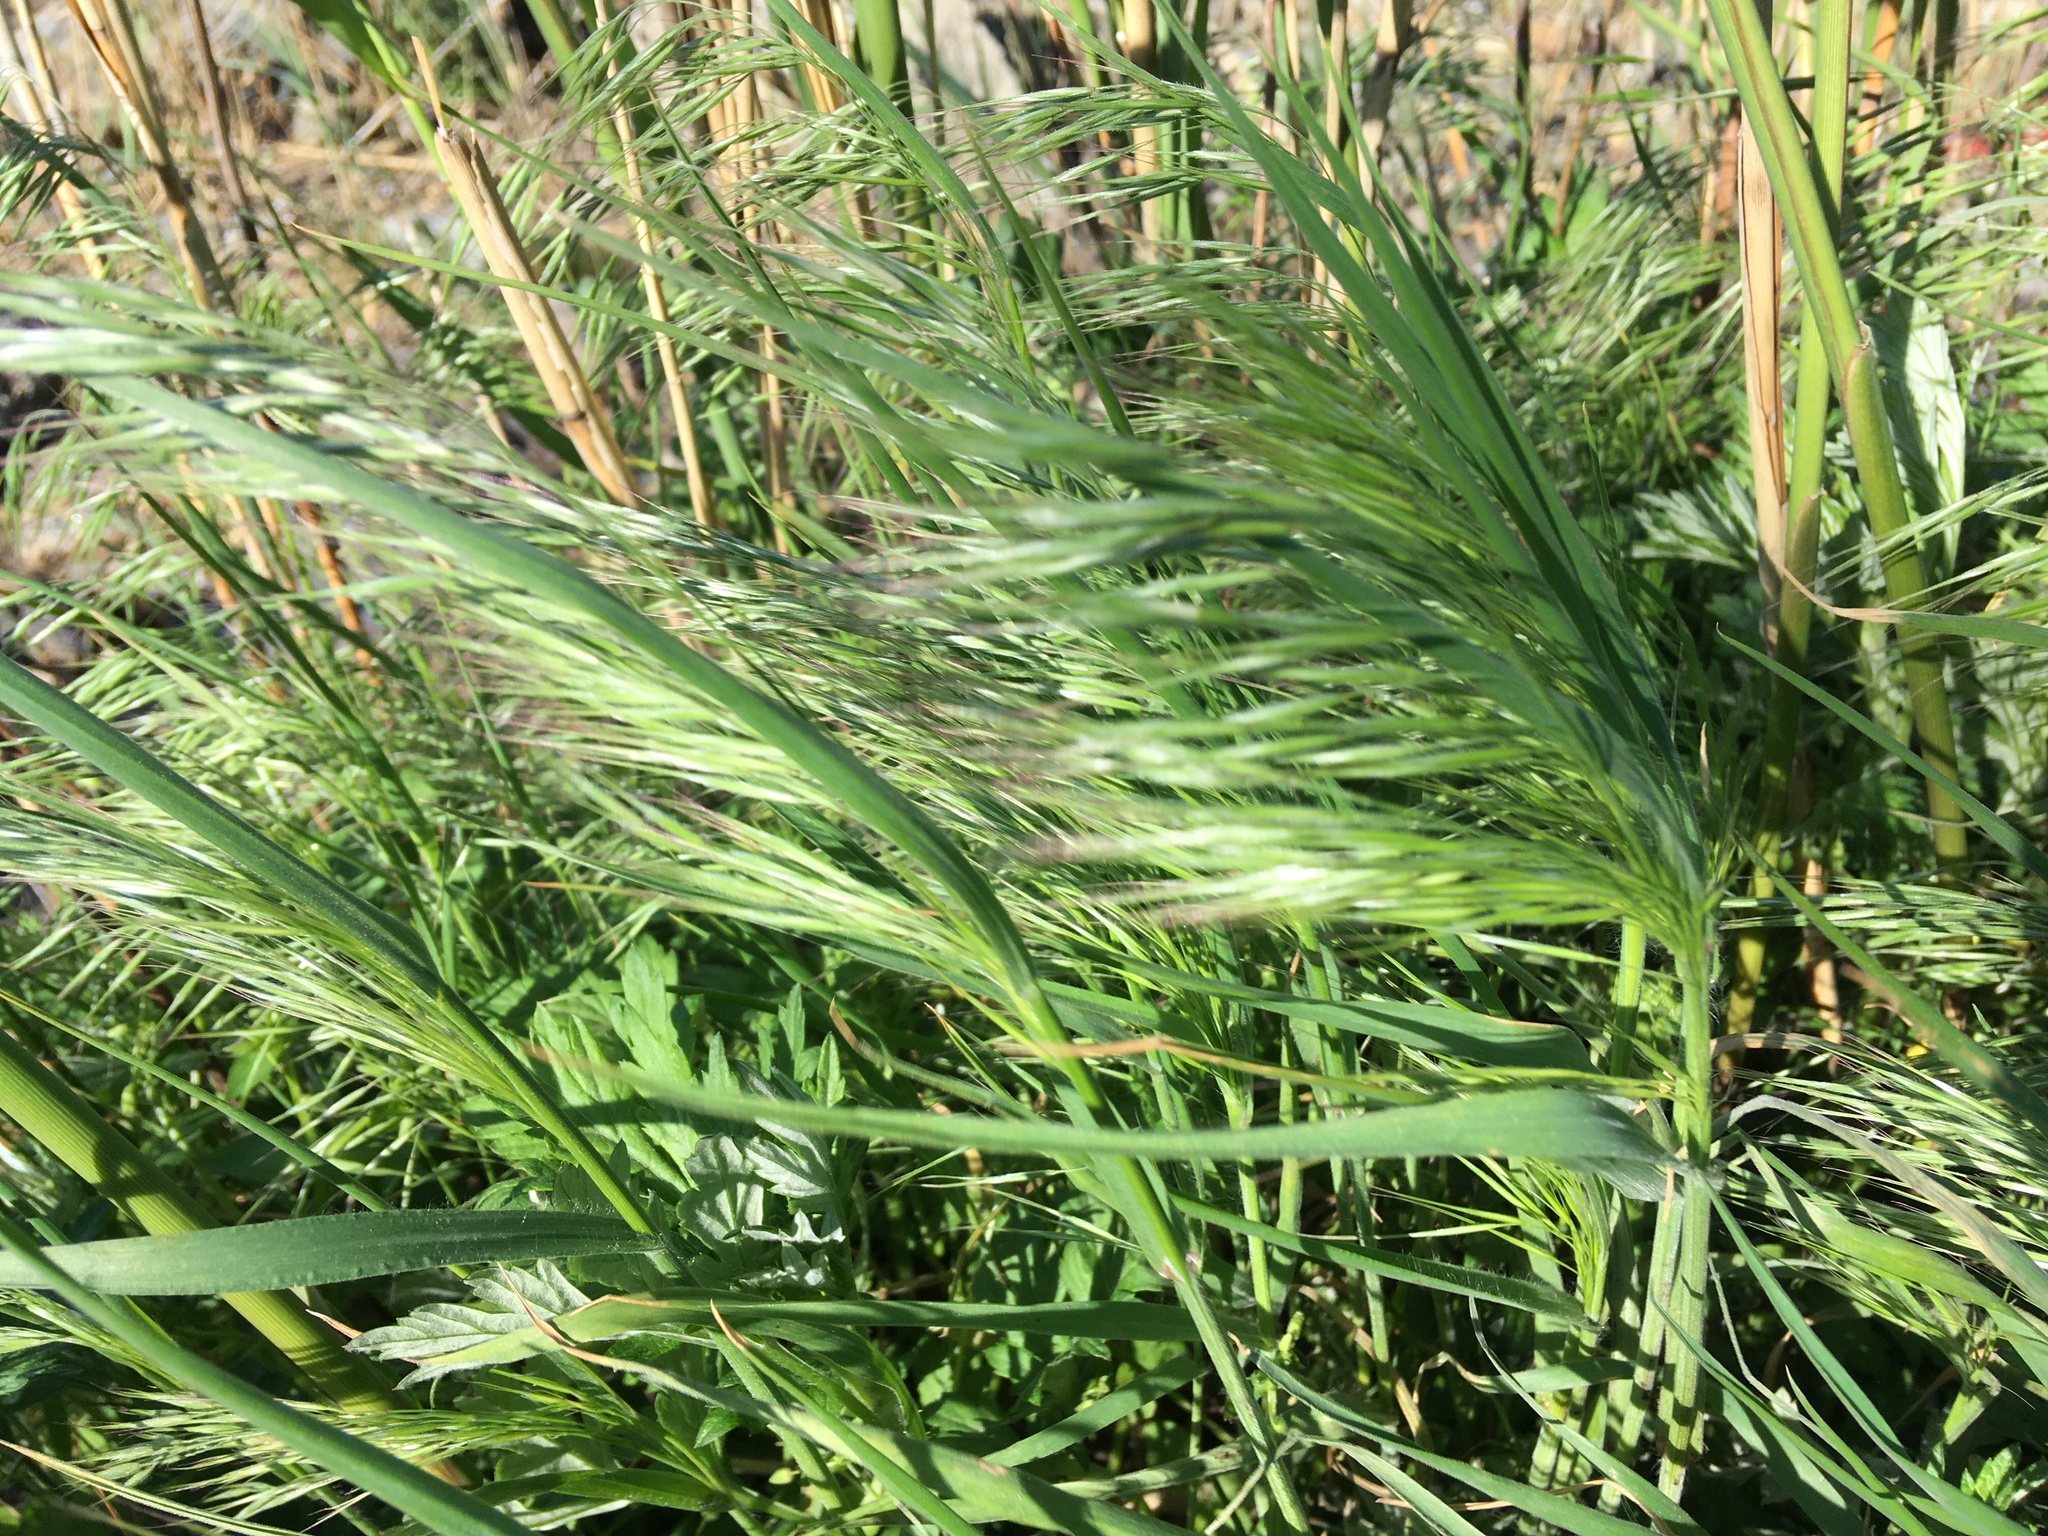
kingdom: Plantae
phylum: Tracheophyta
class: Liliopsida
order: Poales
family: Poaceae
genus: Bromus
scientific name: Bromus tectorum
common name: Cheatgrass
